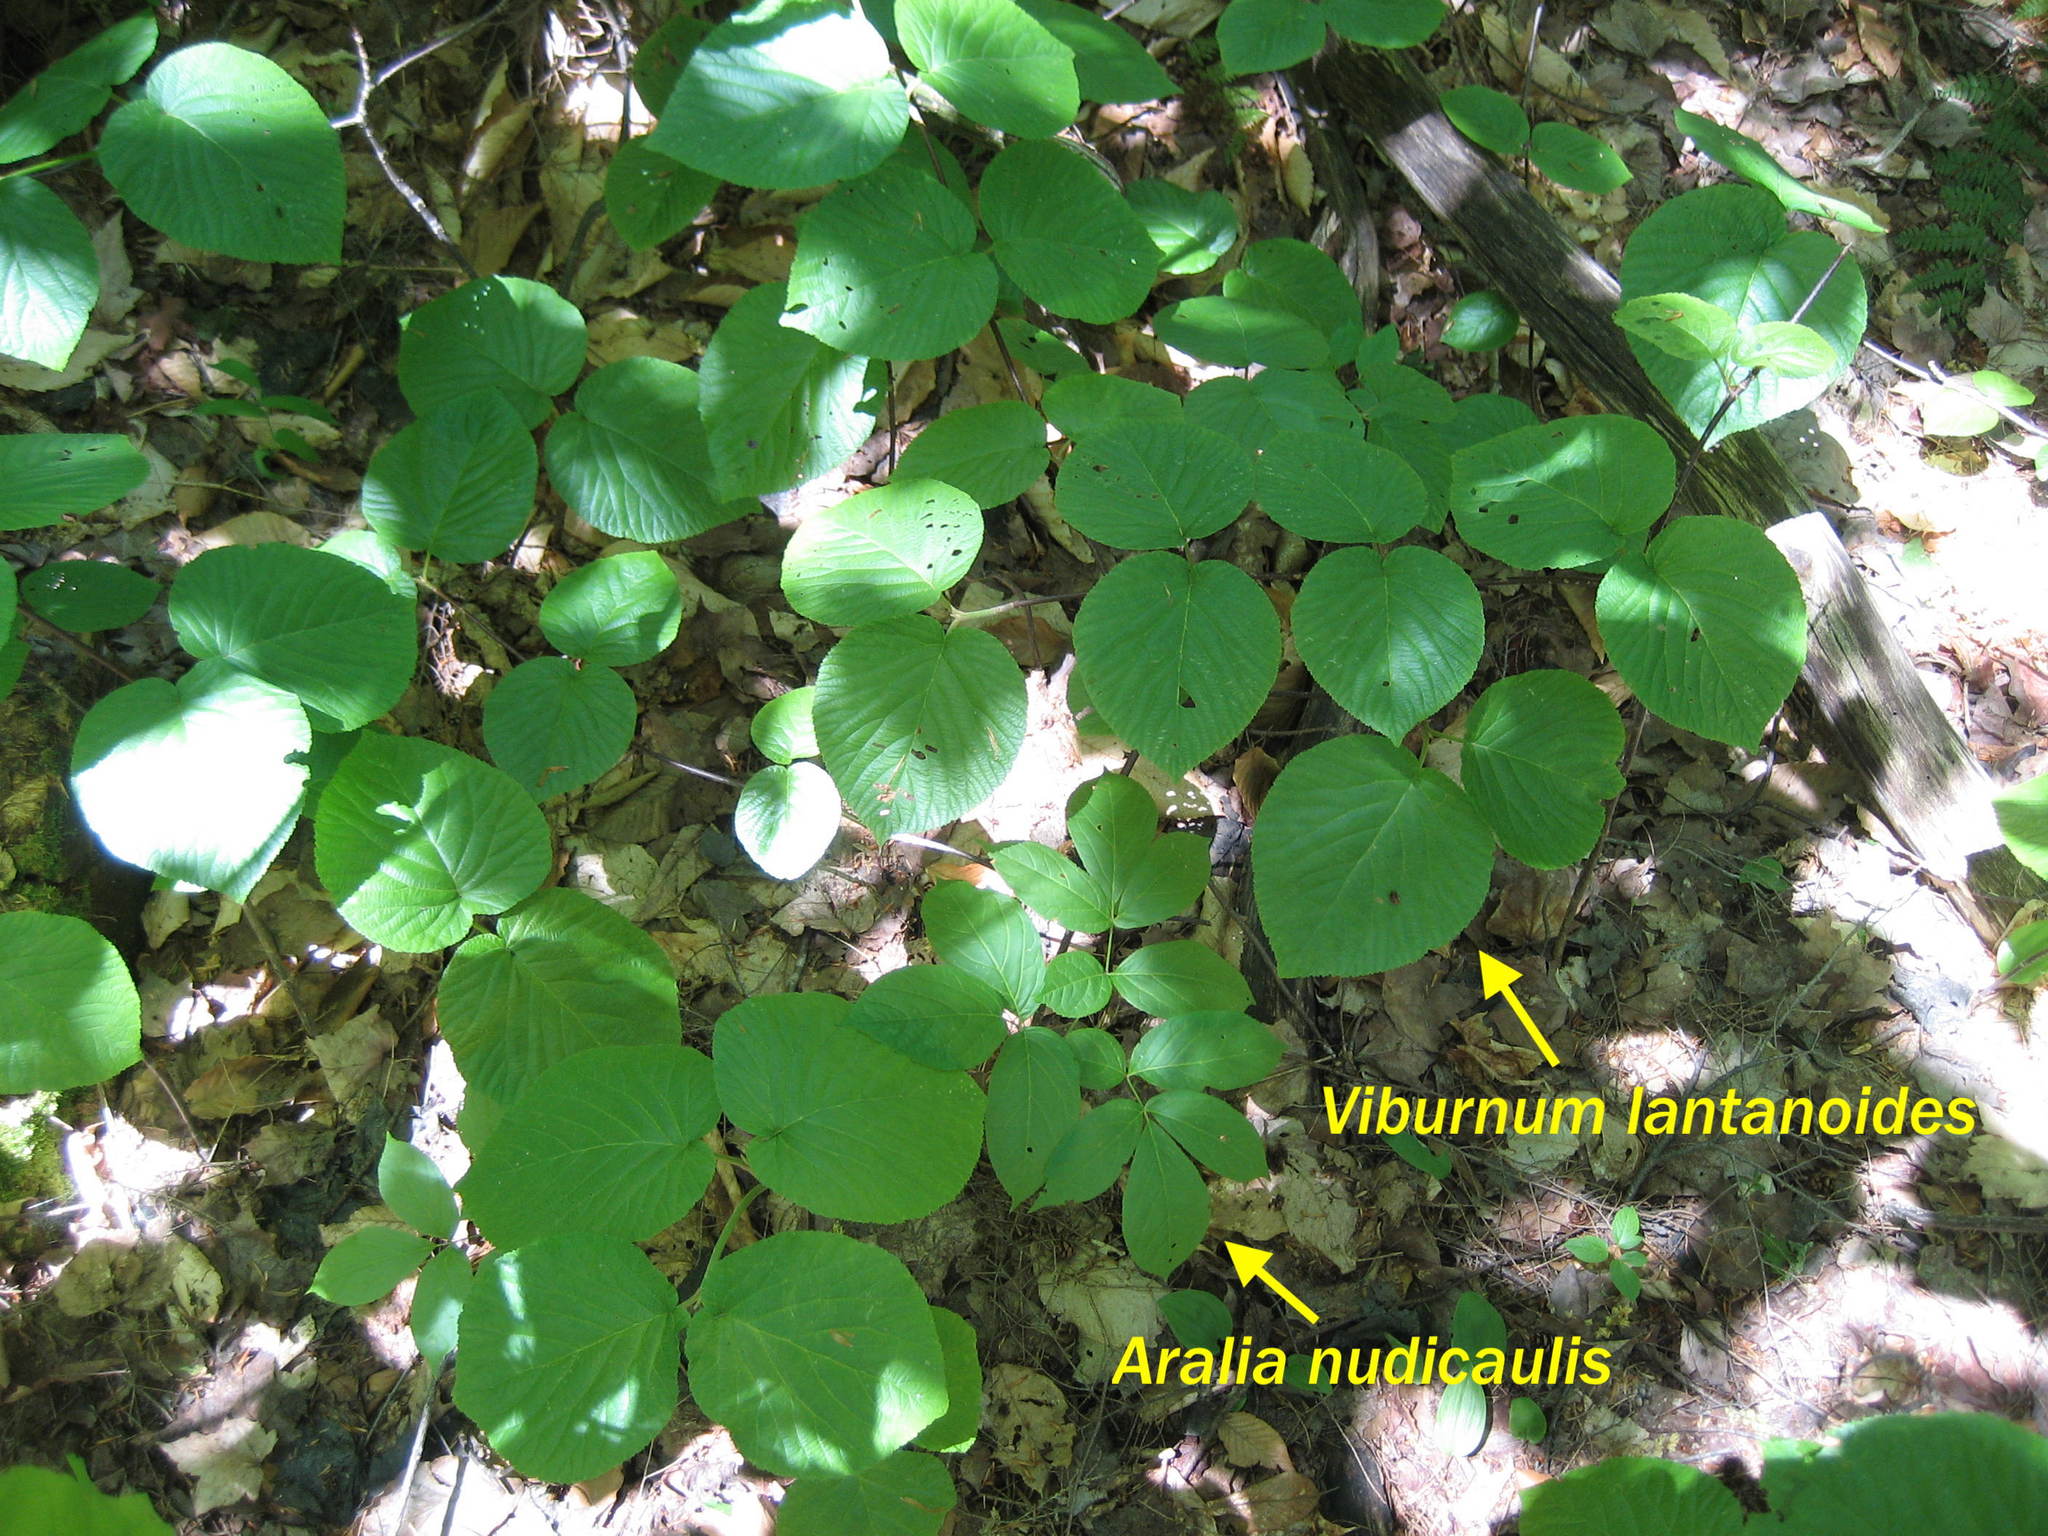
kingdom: Plantae
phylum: Tracheophyta
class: Magnoliopsida
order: Dipsacales
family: Viburnaceae
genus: Viburnum
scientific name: Viburnum lantanoides
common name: Hobblebush
